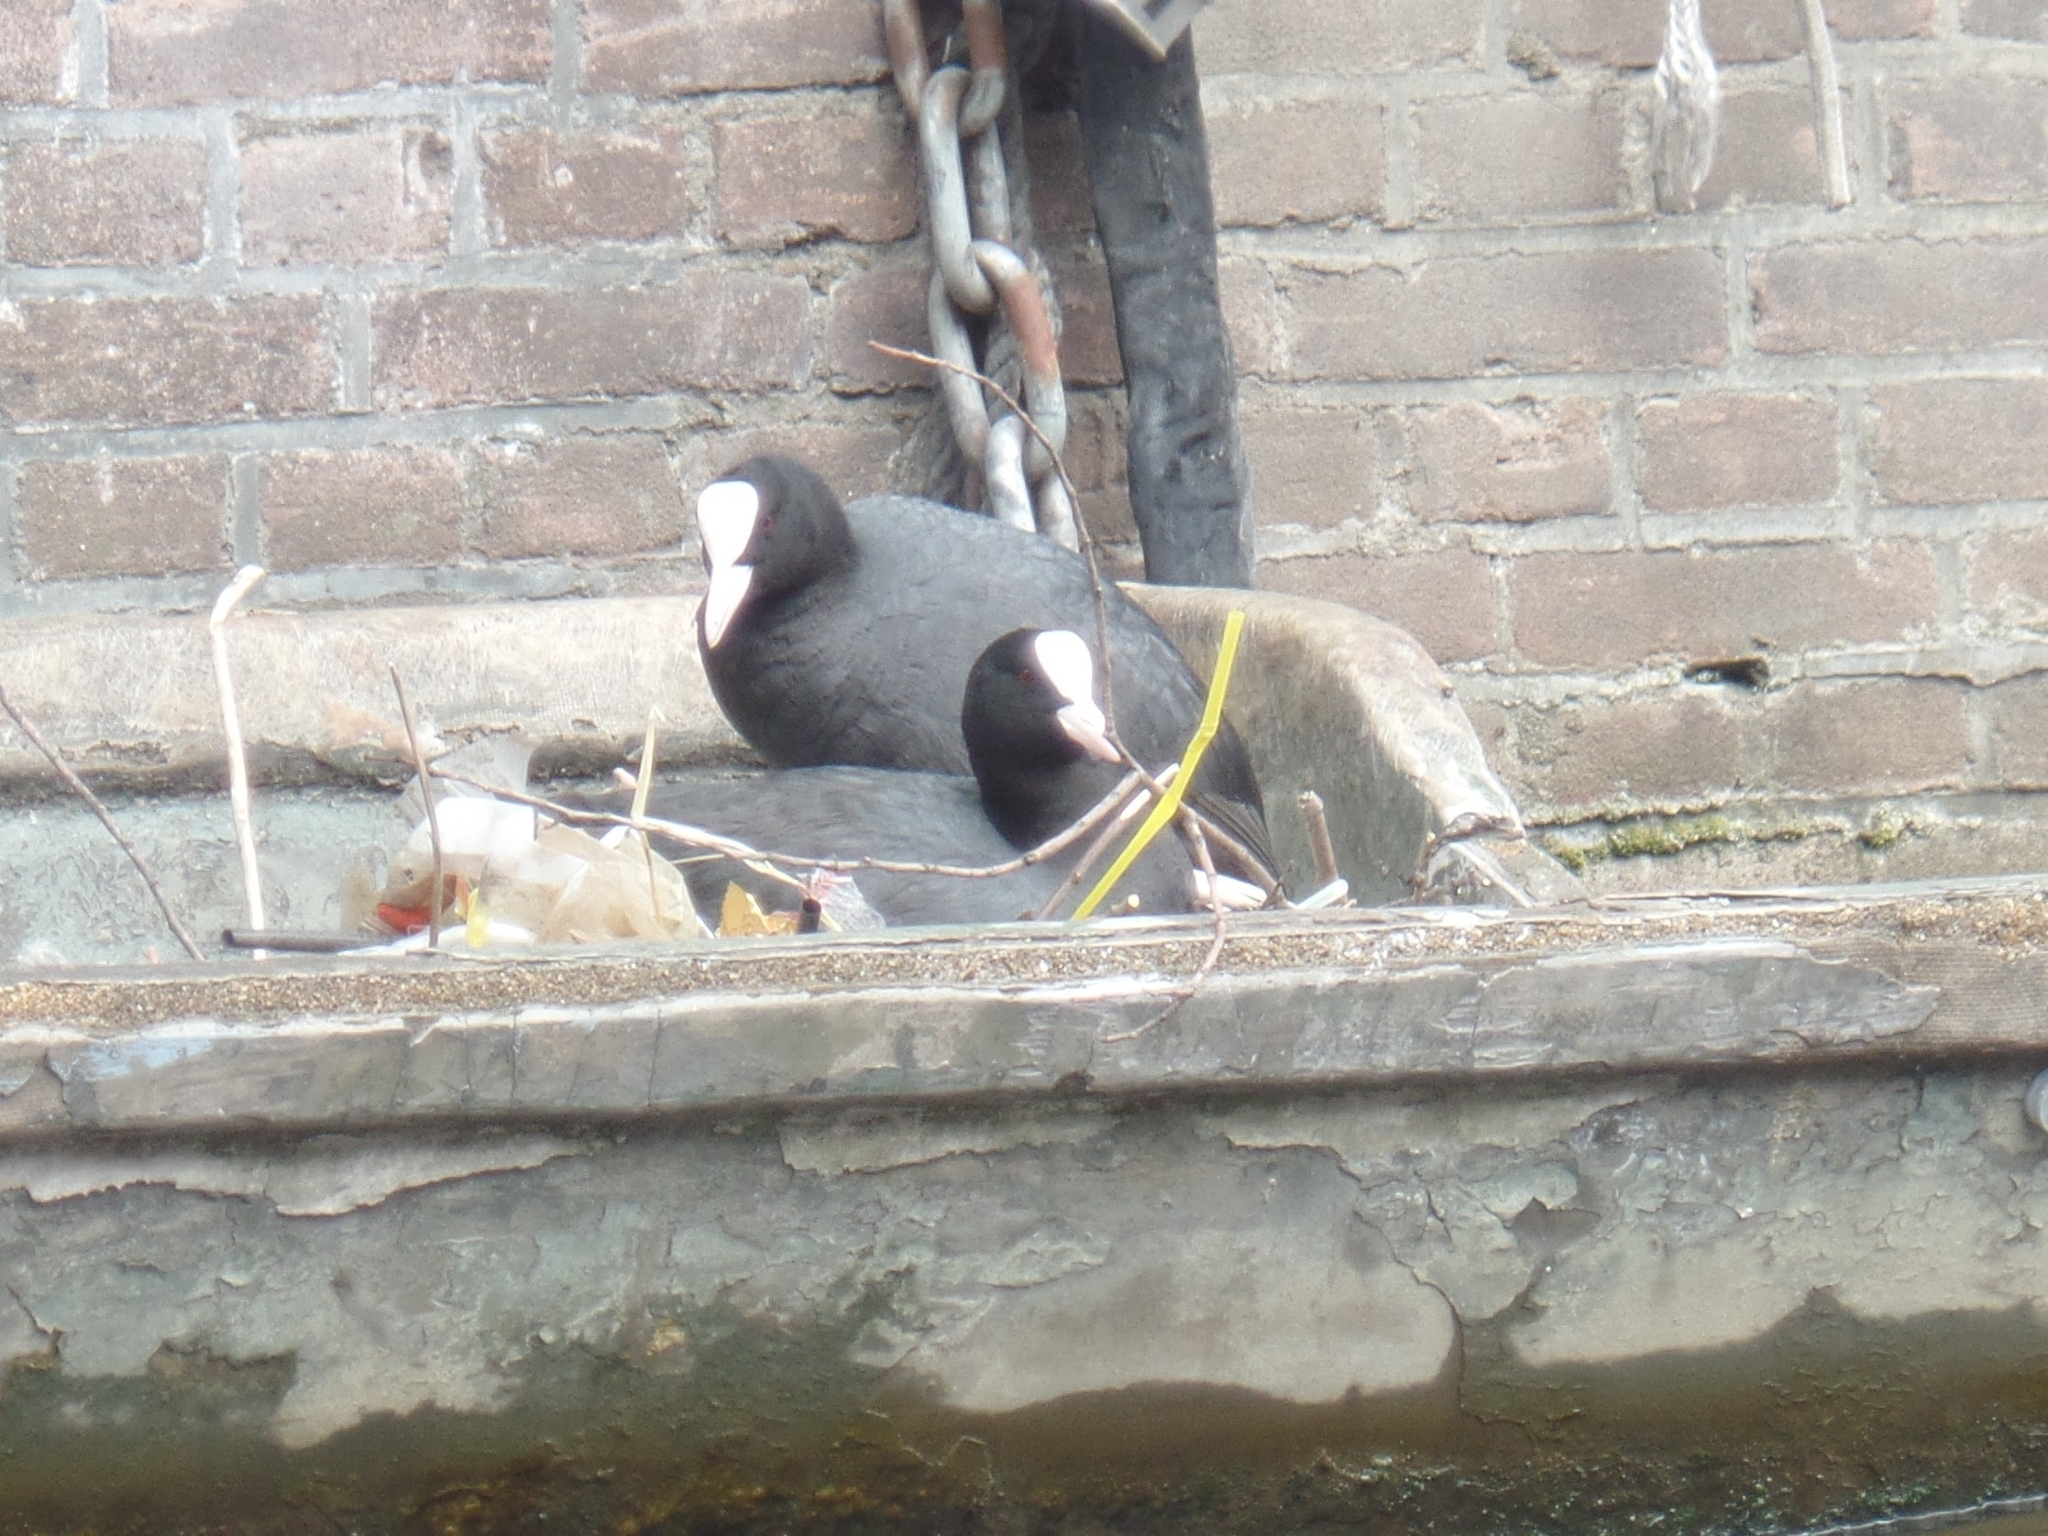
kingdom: Animalia
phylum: Chordata
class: Aves
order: Gruiformes
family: Rallidae
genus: Fulica
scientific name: Fulica atra
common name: Eurasian coot
